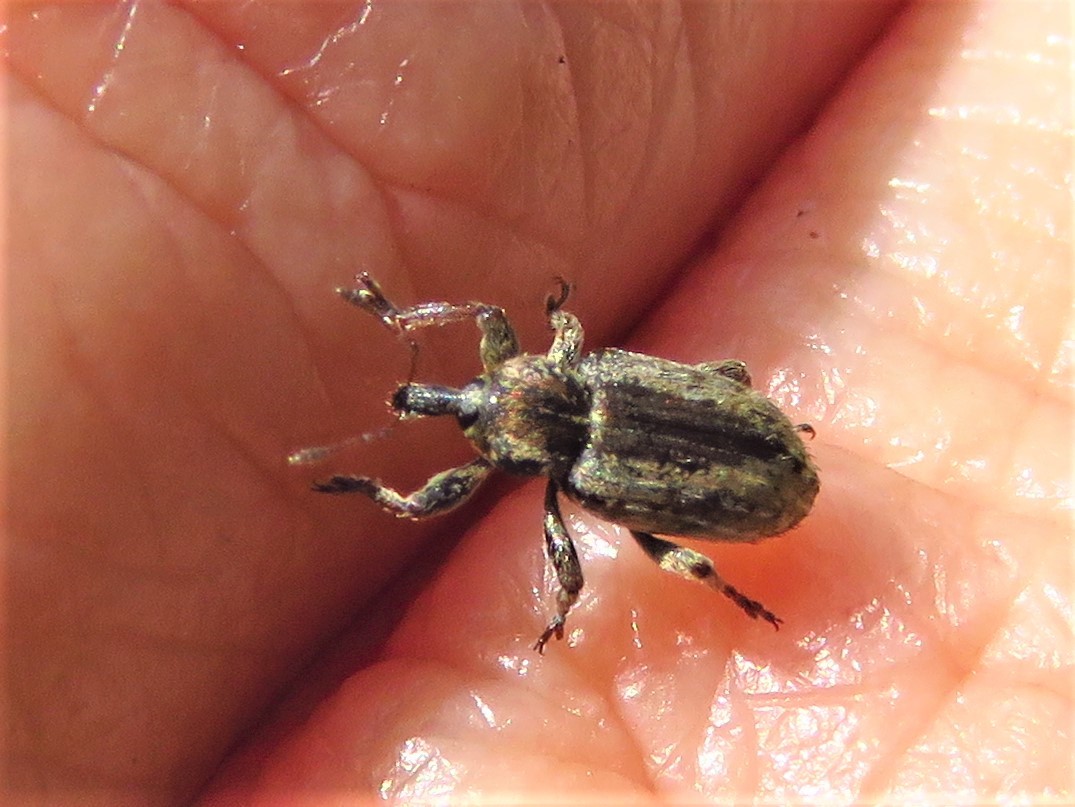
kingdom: Animalia
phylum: Arthropoda
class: Insecta
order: Coleoptera
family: Curculionidae
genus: Hypera
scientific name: Hypera postica
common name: Weevil
